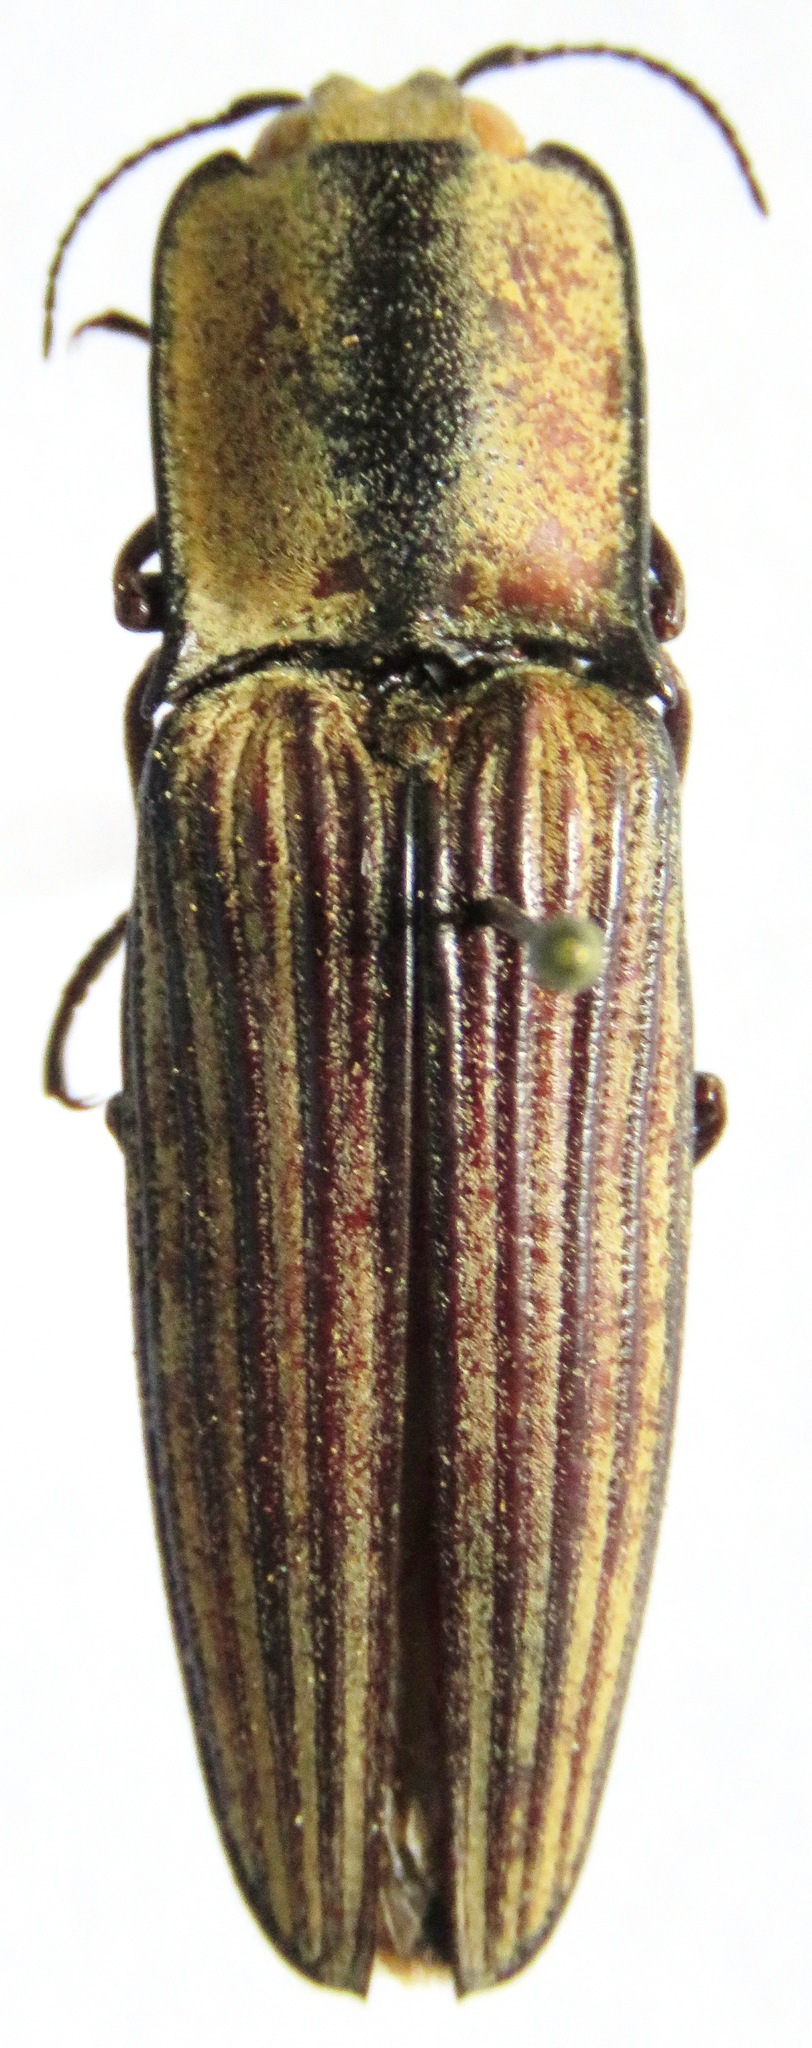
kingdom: Animalia
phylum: Arthropoda
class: Insecta
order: Coleoptera
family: Elateridae
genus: Alaus
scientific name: Alaus
